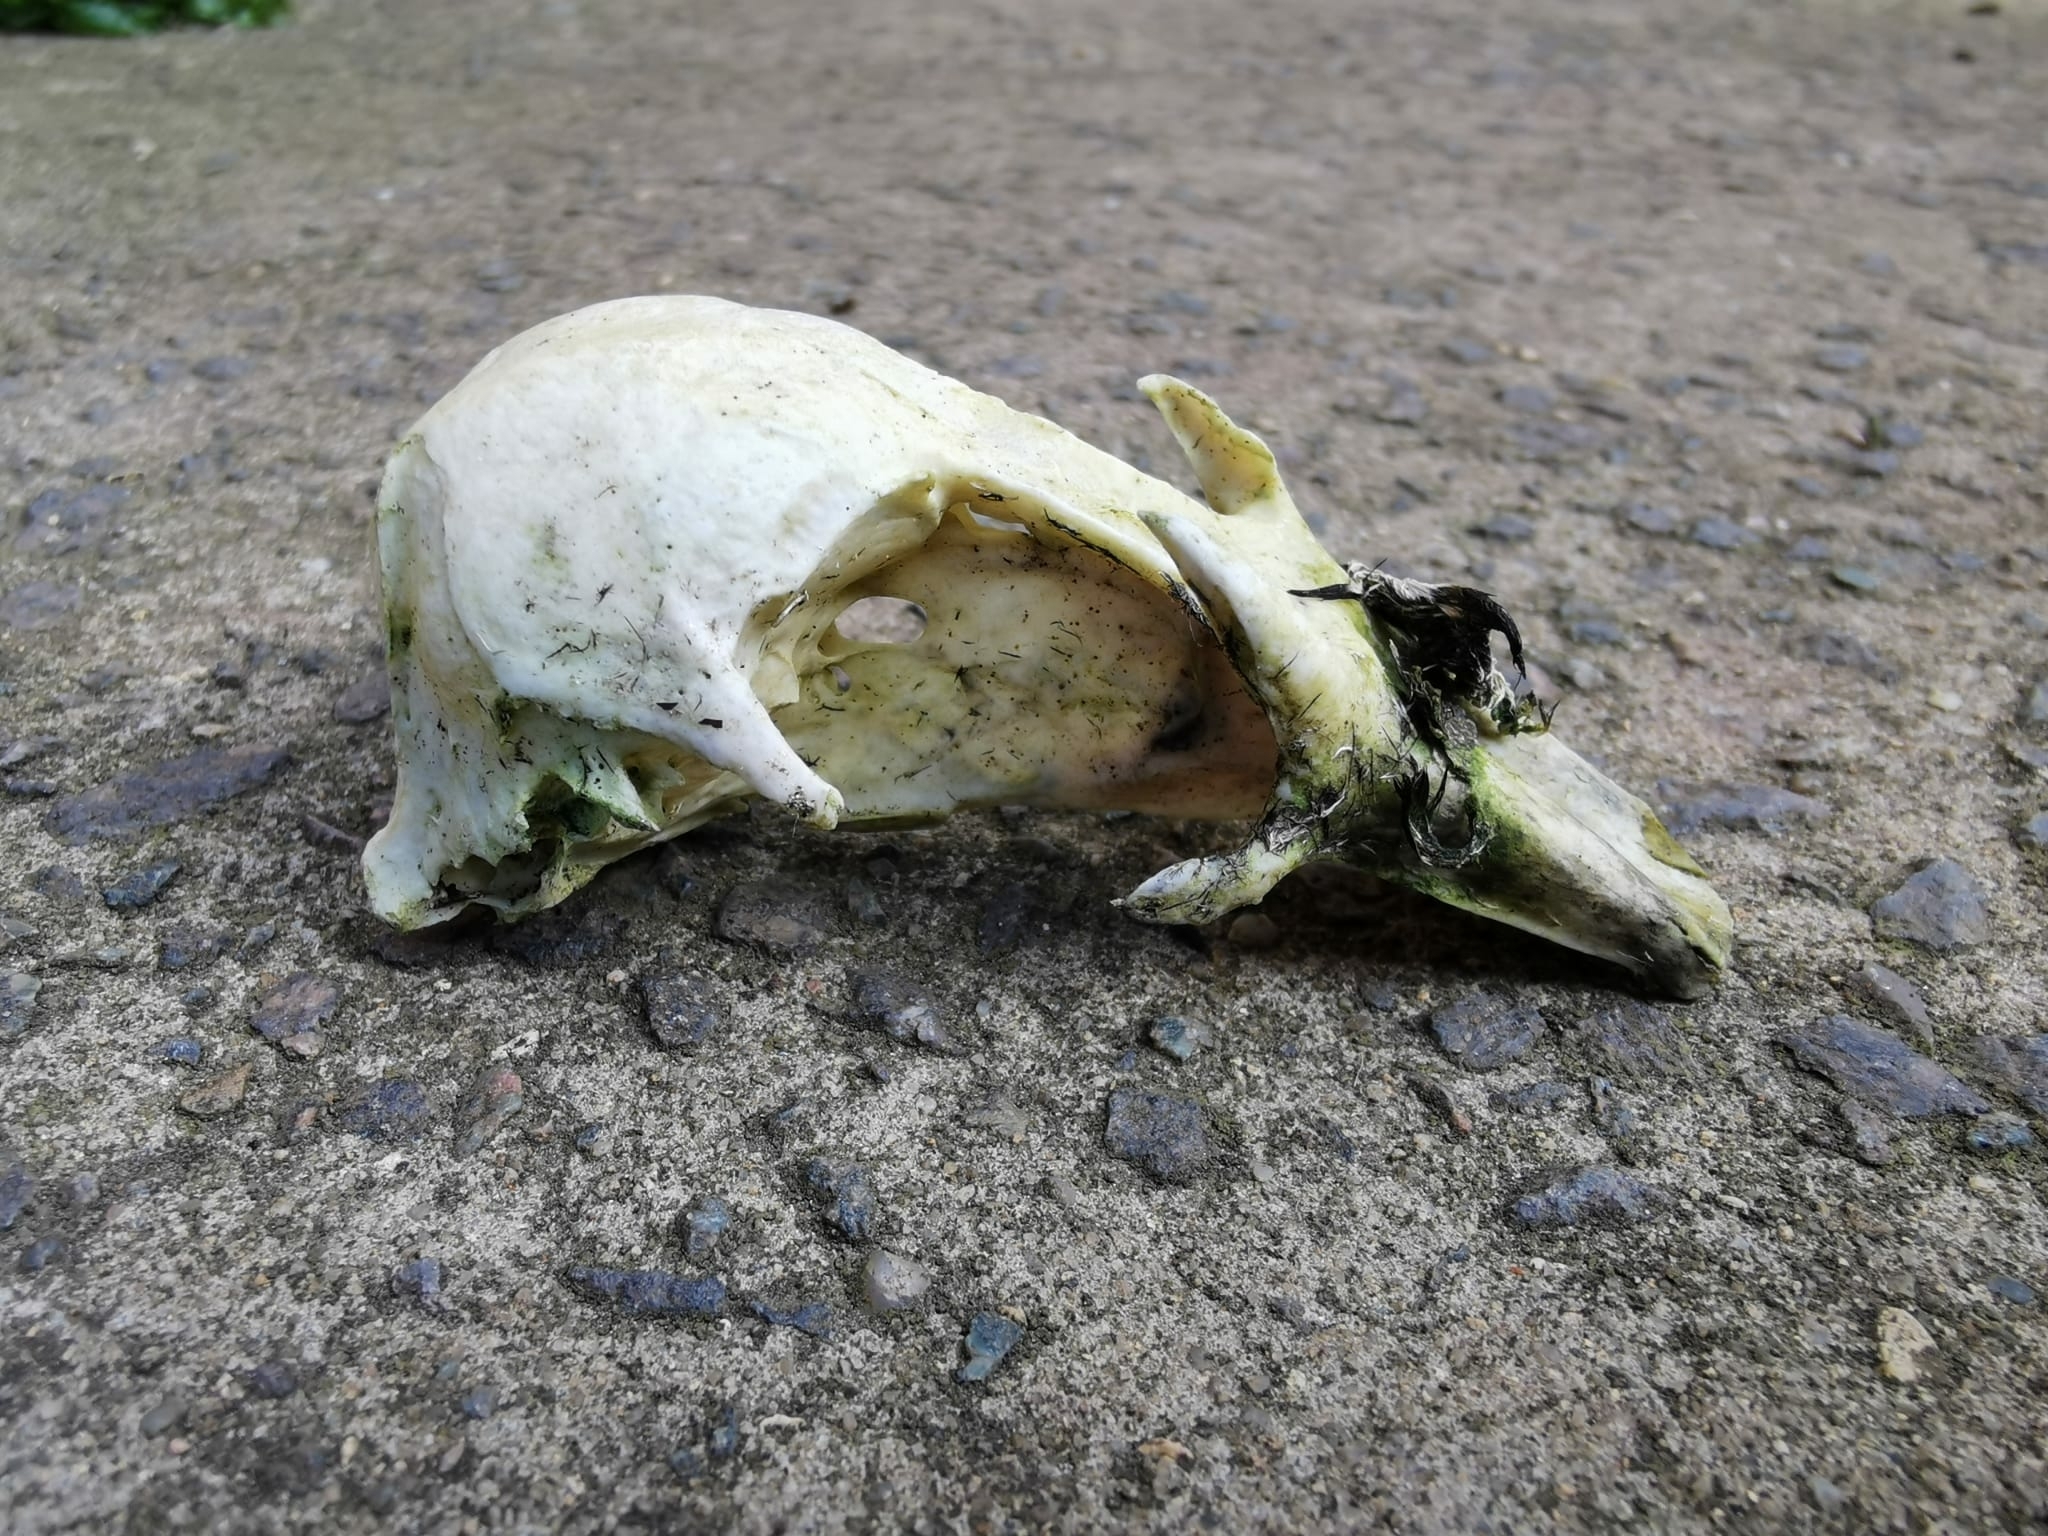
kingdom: Animalia
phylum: Chordata
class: Aves
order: Anseriformes
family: Anatidae
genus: Somateria
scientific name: Somateria mollissima
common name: Common eider
